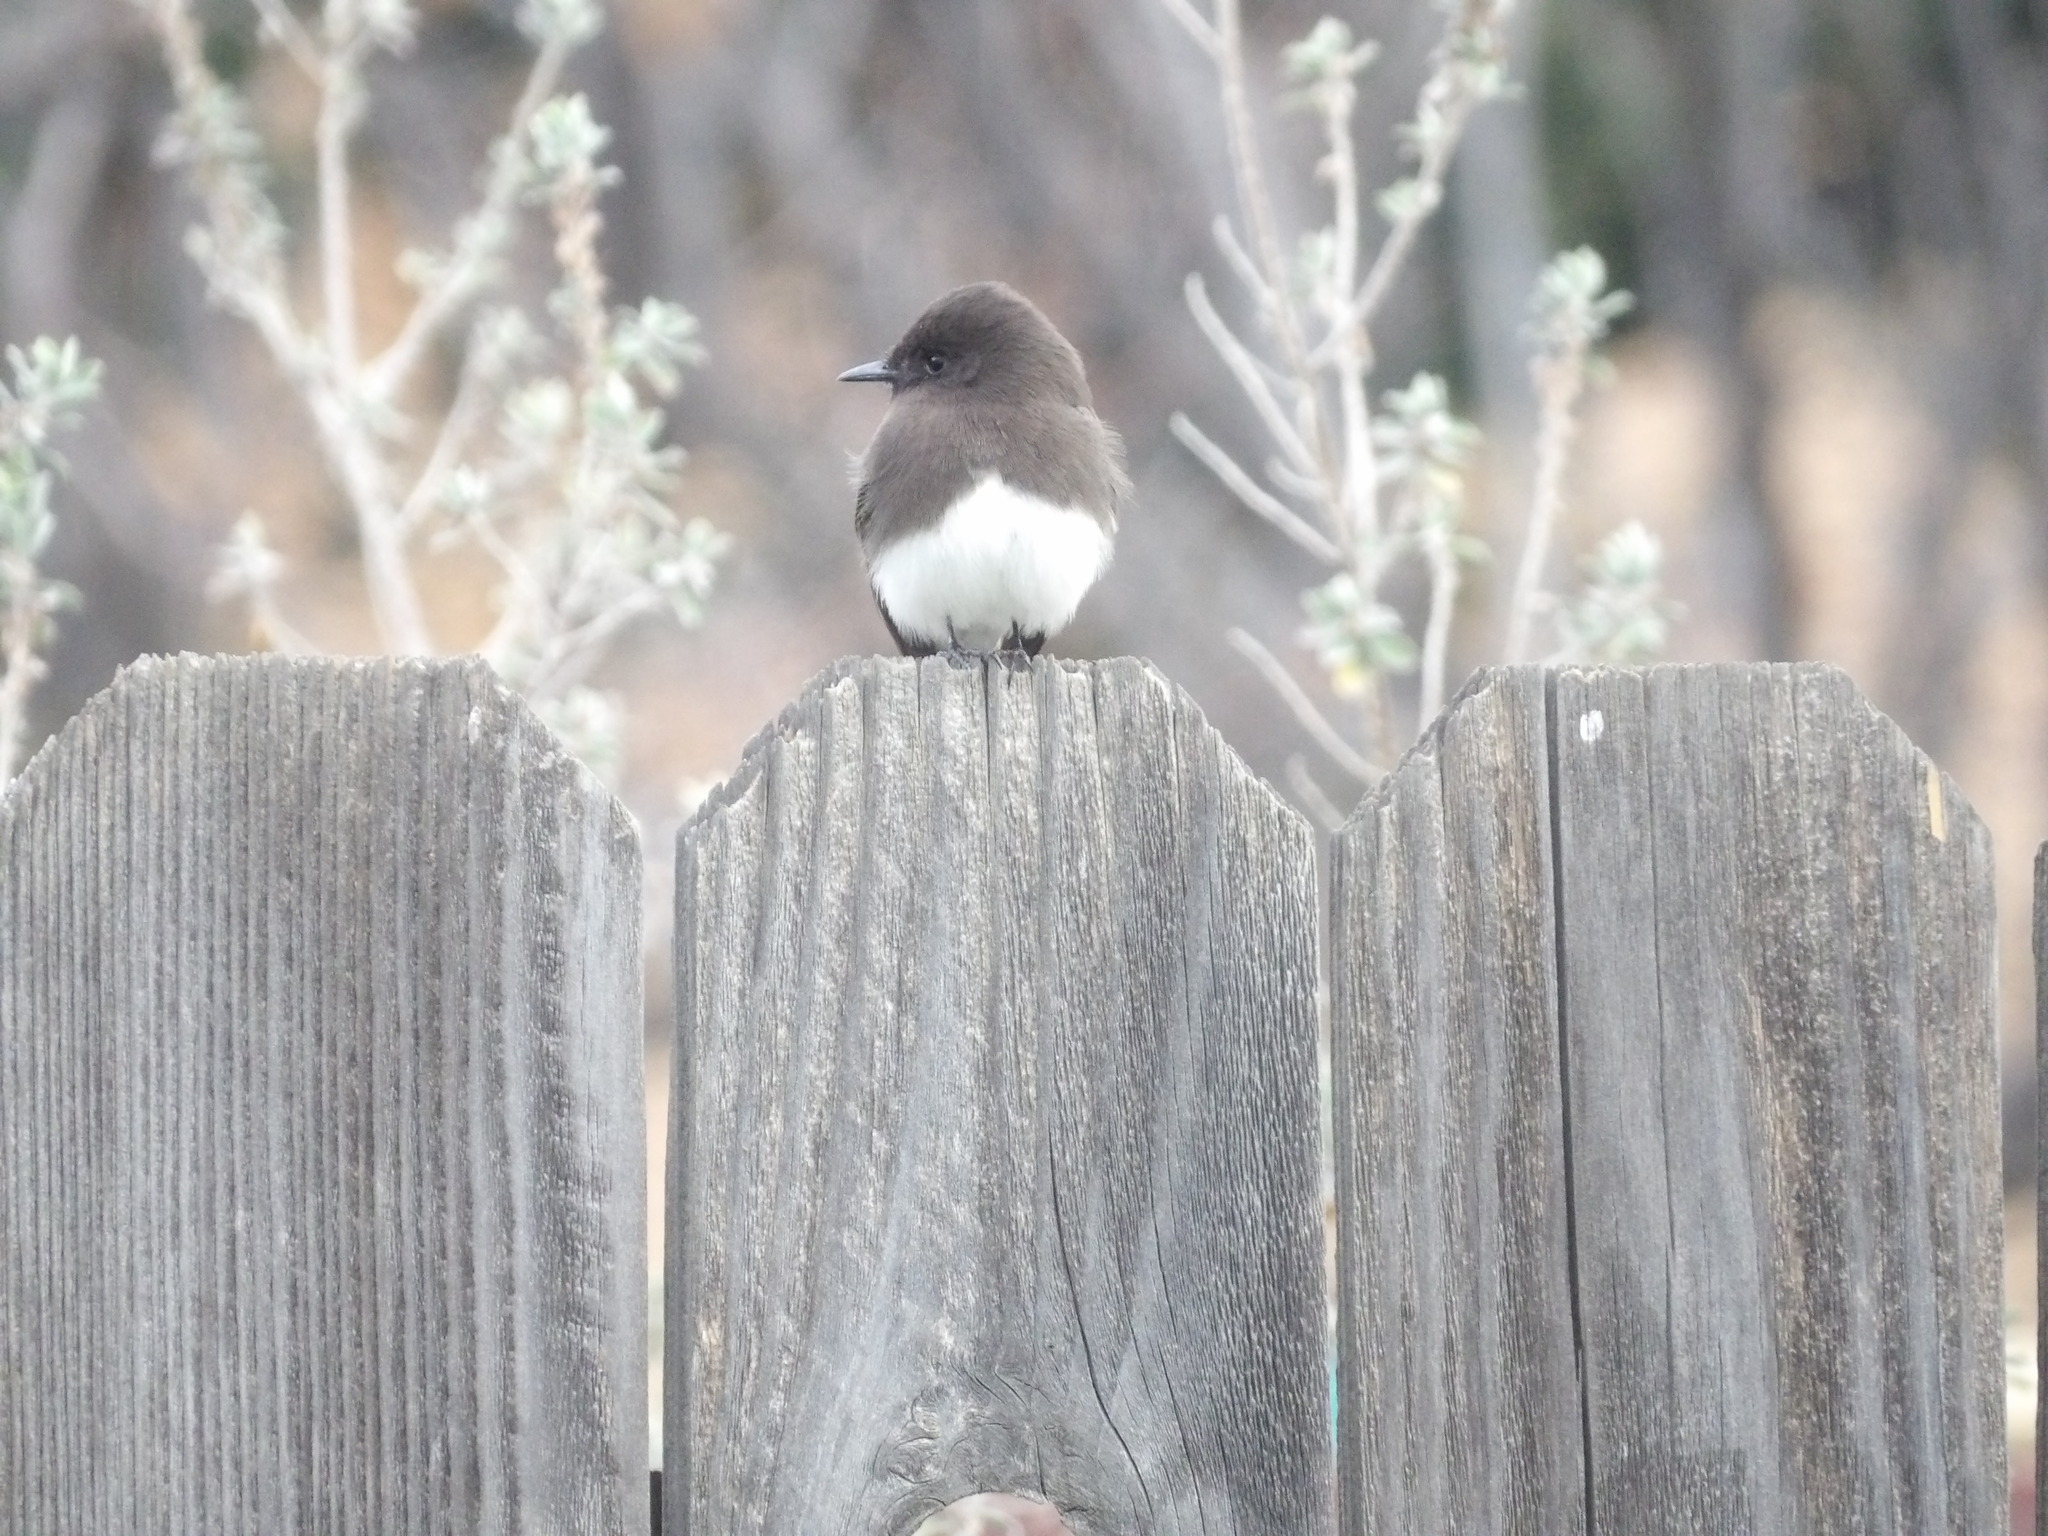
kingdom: Animalia
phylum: Chordata
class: Aves
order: Passeriformes
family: Tyrannidae
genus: Sayornis
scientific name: Sayornis nigricans
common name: Black phoebe
